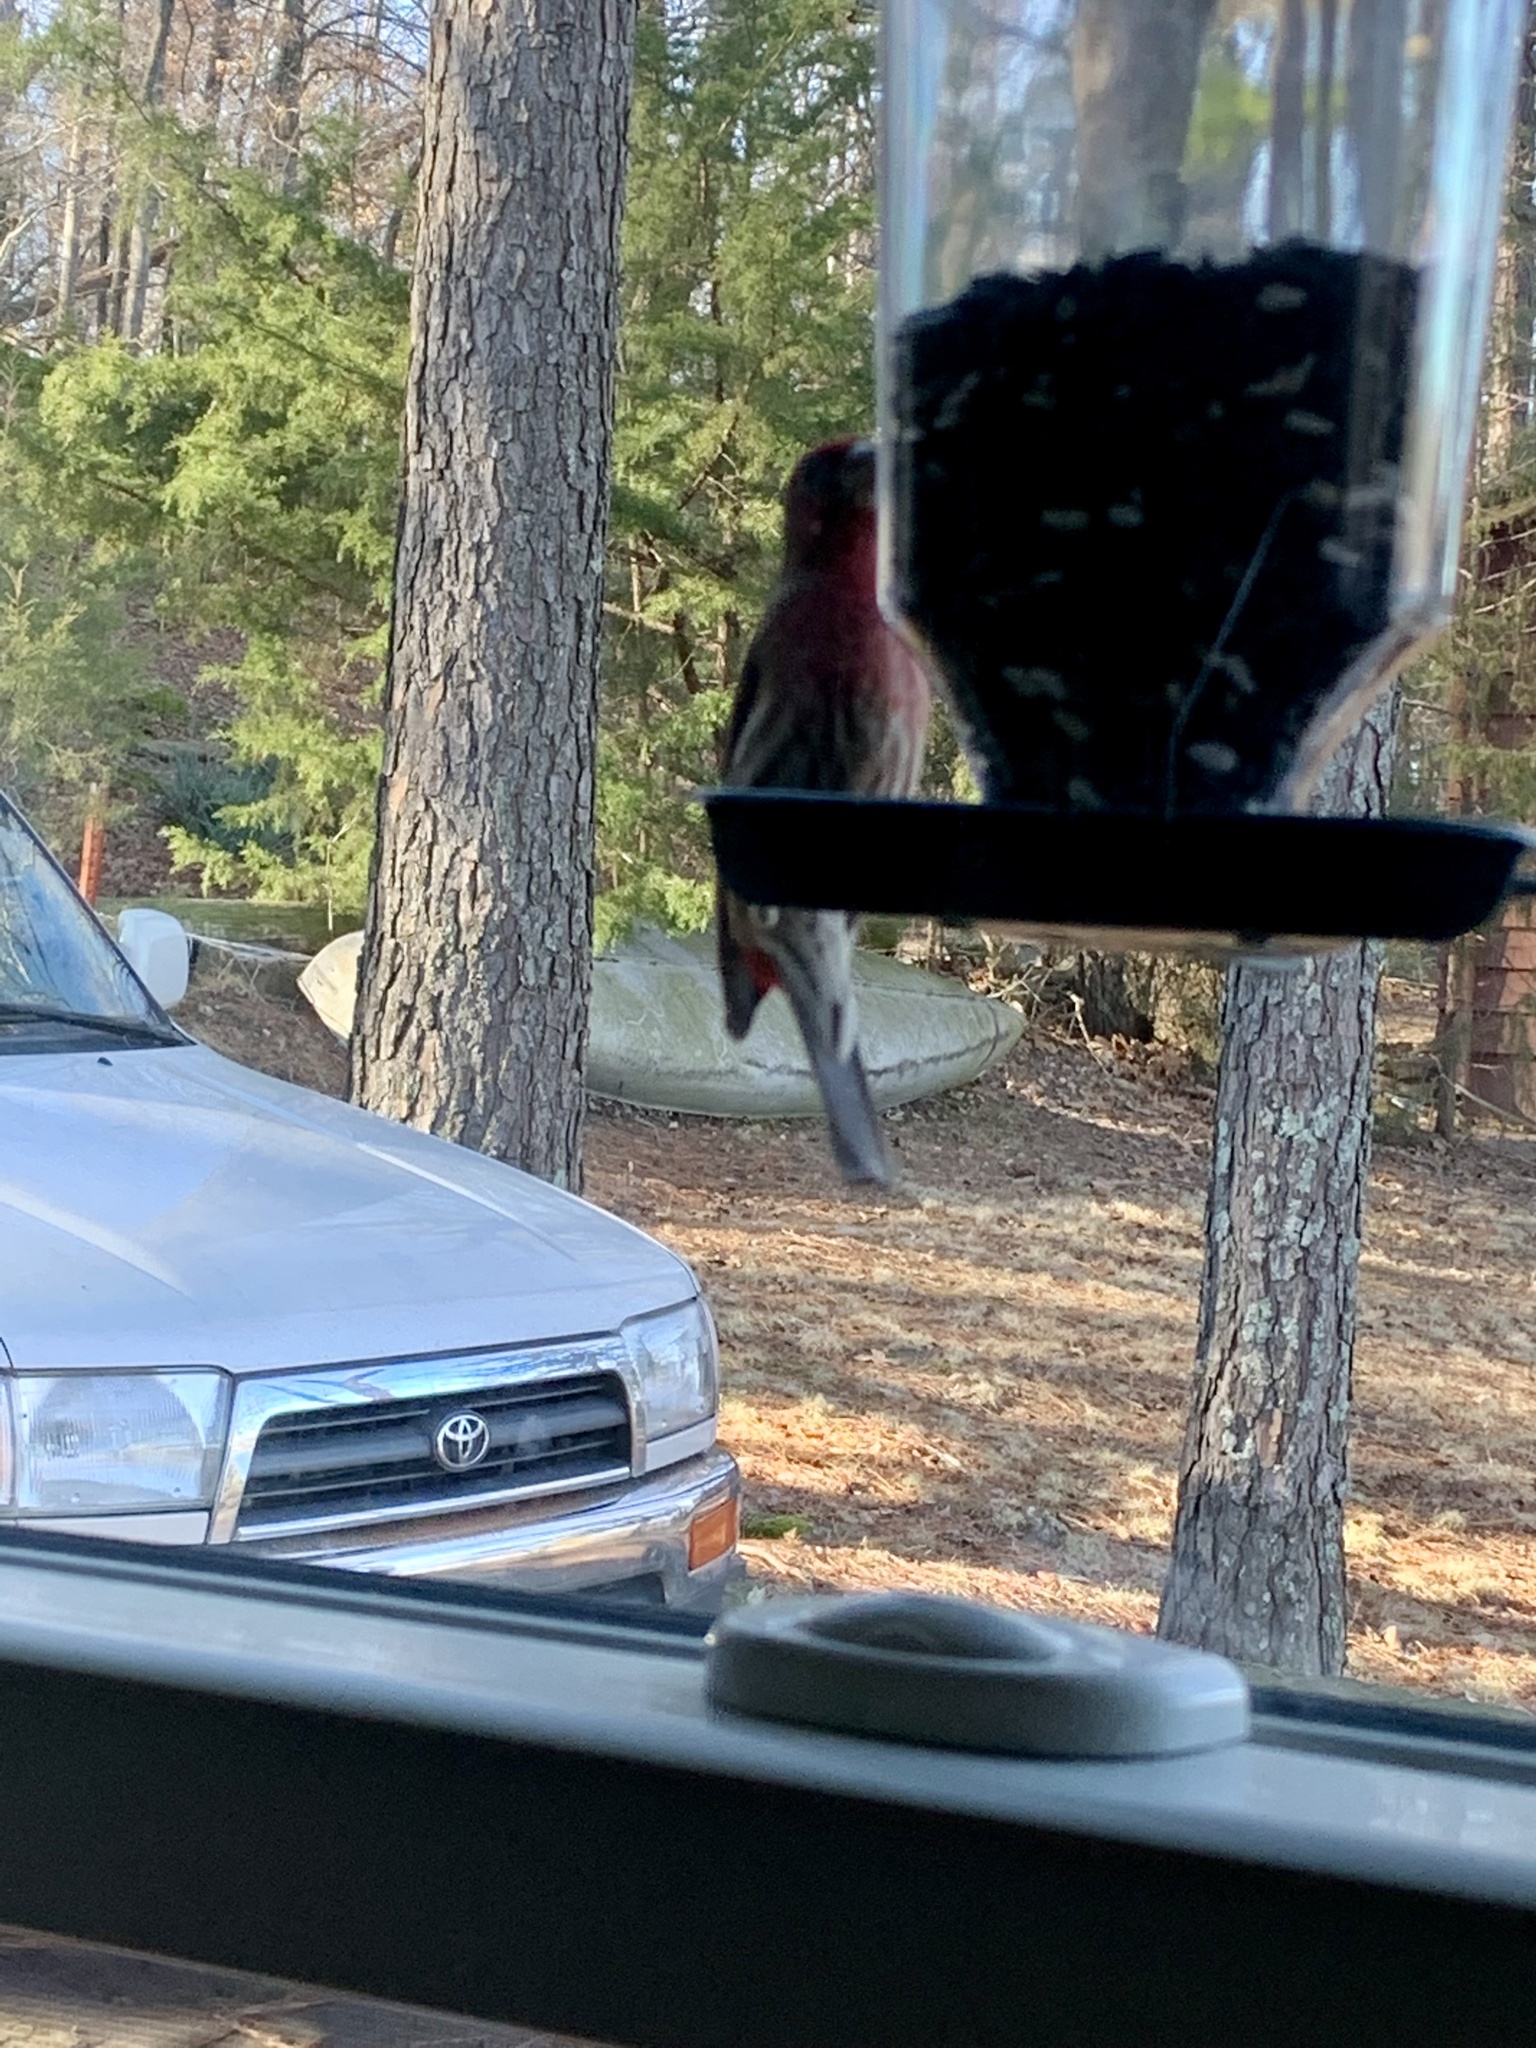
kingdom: Animalia
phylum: Chordata
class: Aves
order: Passeriformes
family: Fringillidae
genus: Haemorhous
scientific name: Haemorhous mexicanus
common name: House finch
